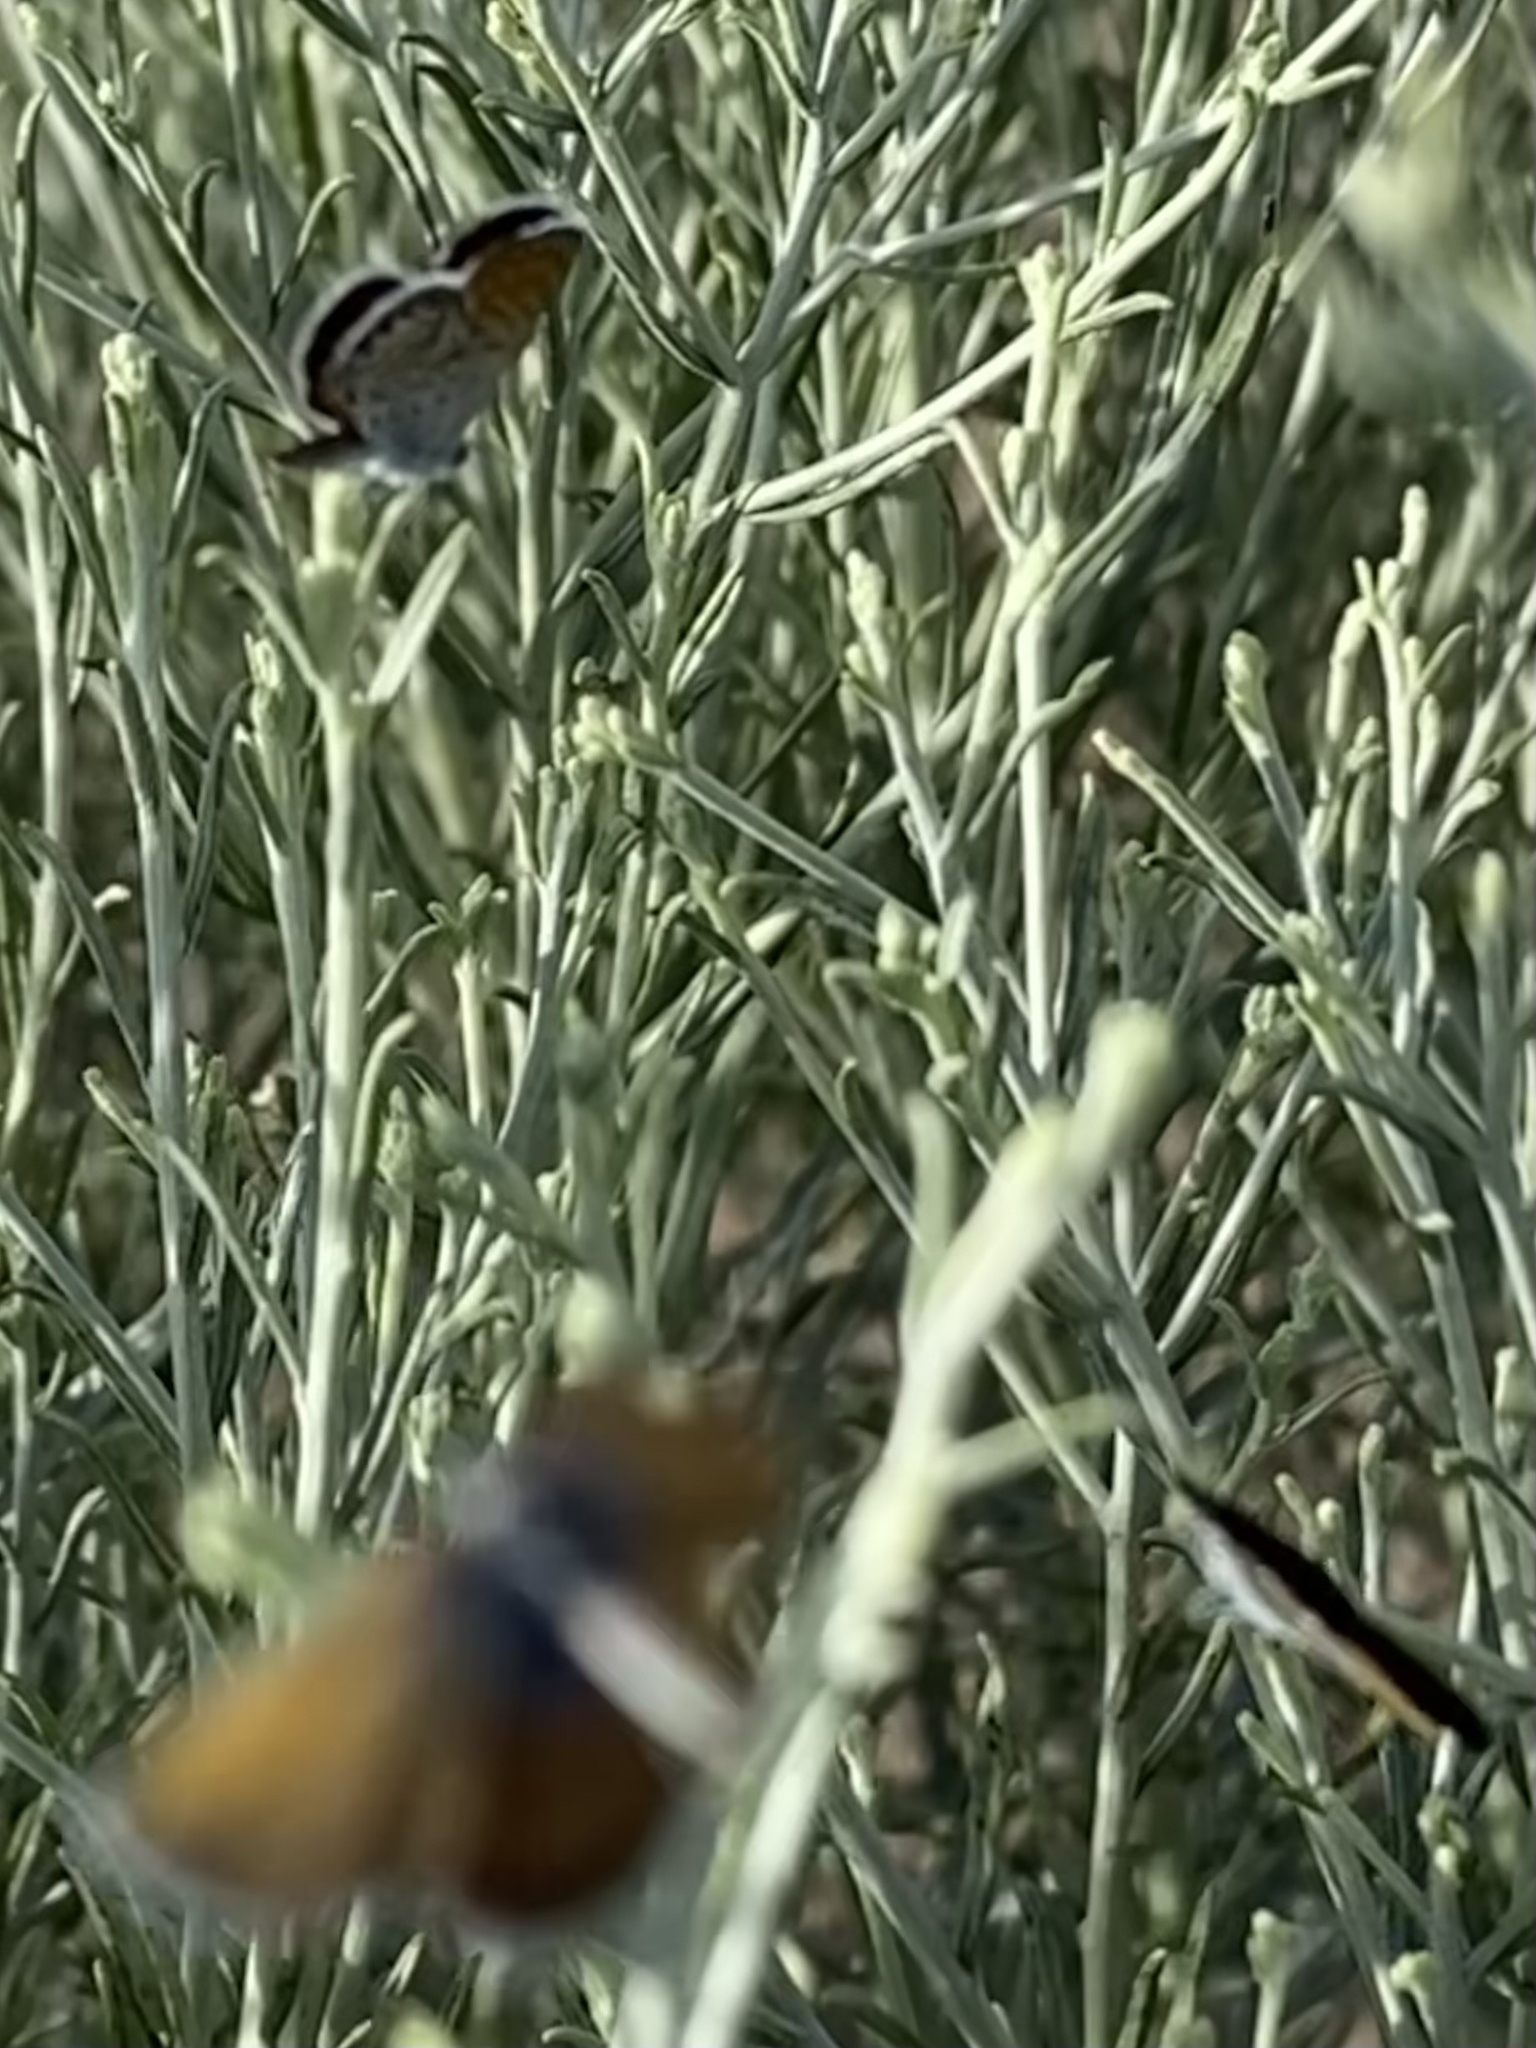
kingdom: Animalia
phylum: Arthropoda
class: Insecta
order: Lepidoptera
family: Lycaenidae
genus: Brephidium
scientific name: Brephidium exilis
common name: Pygmy blue
